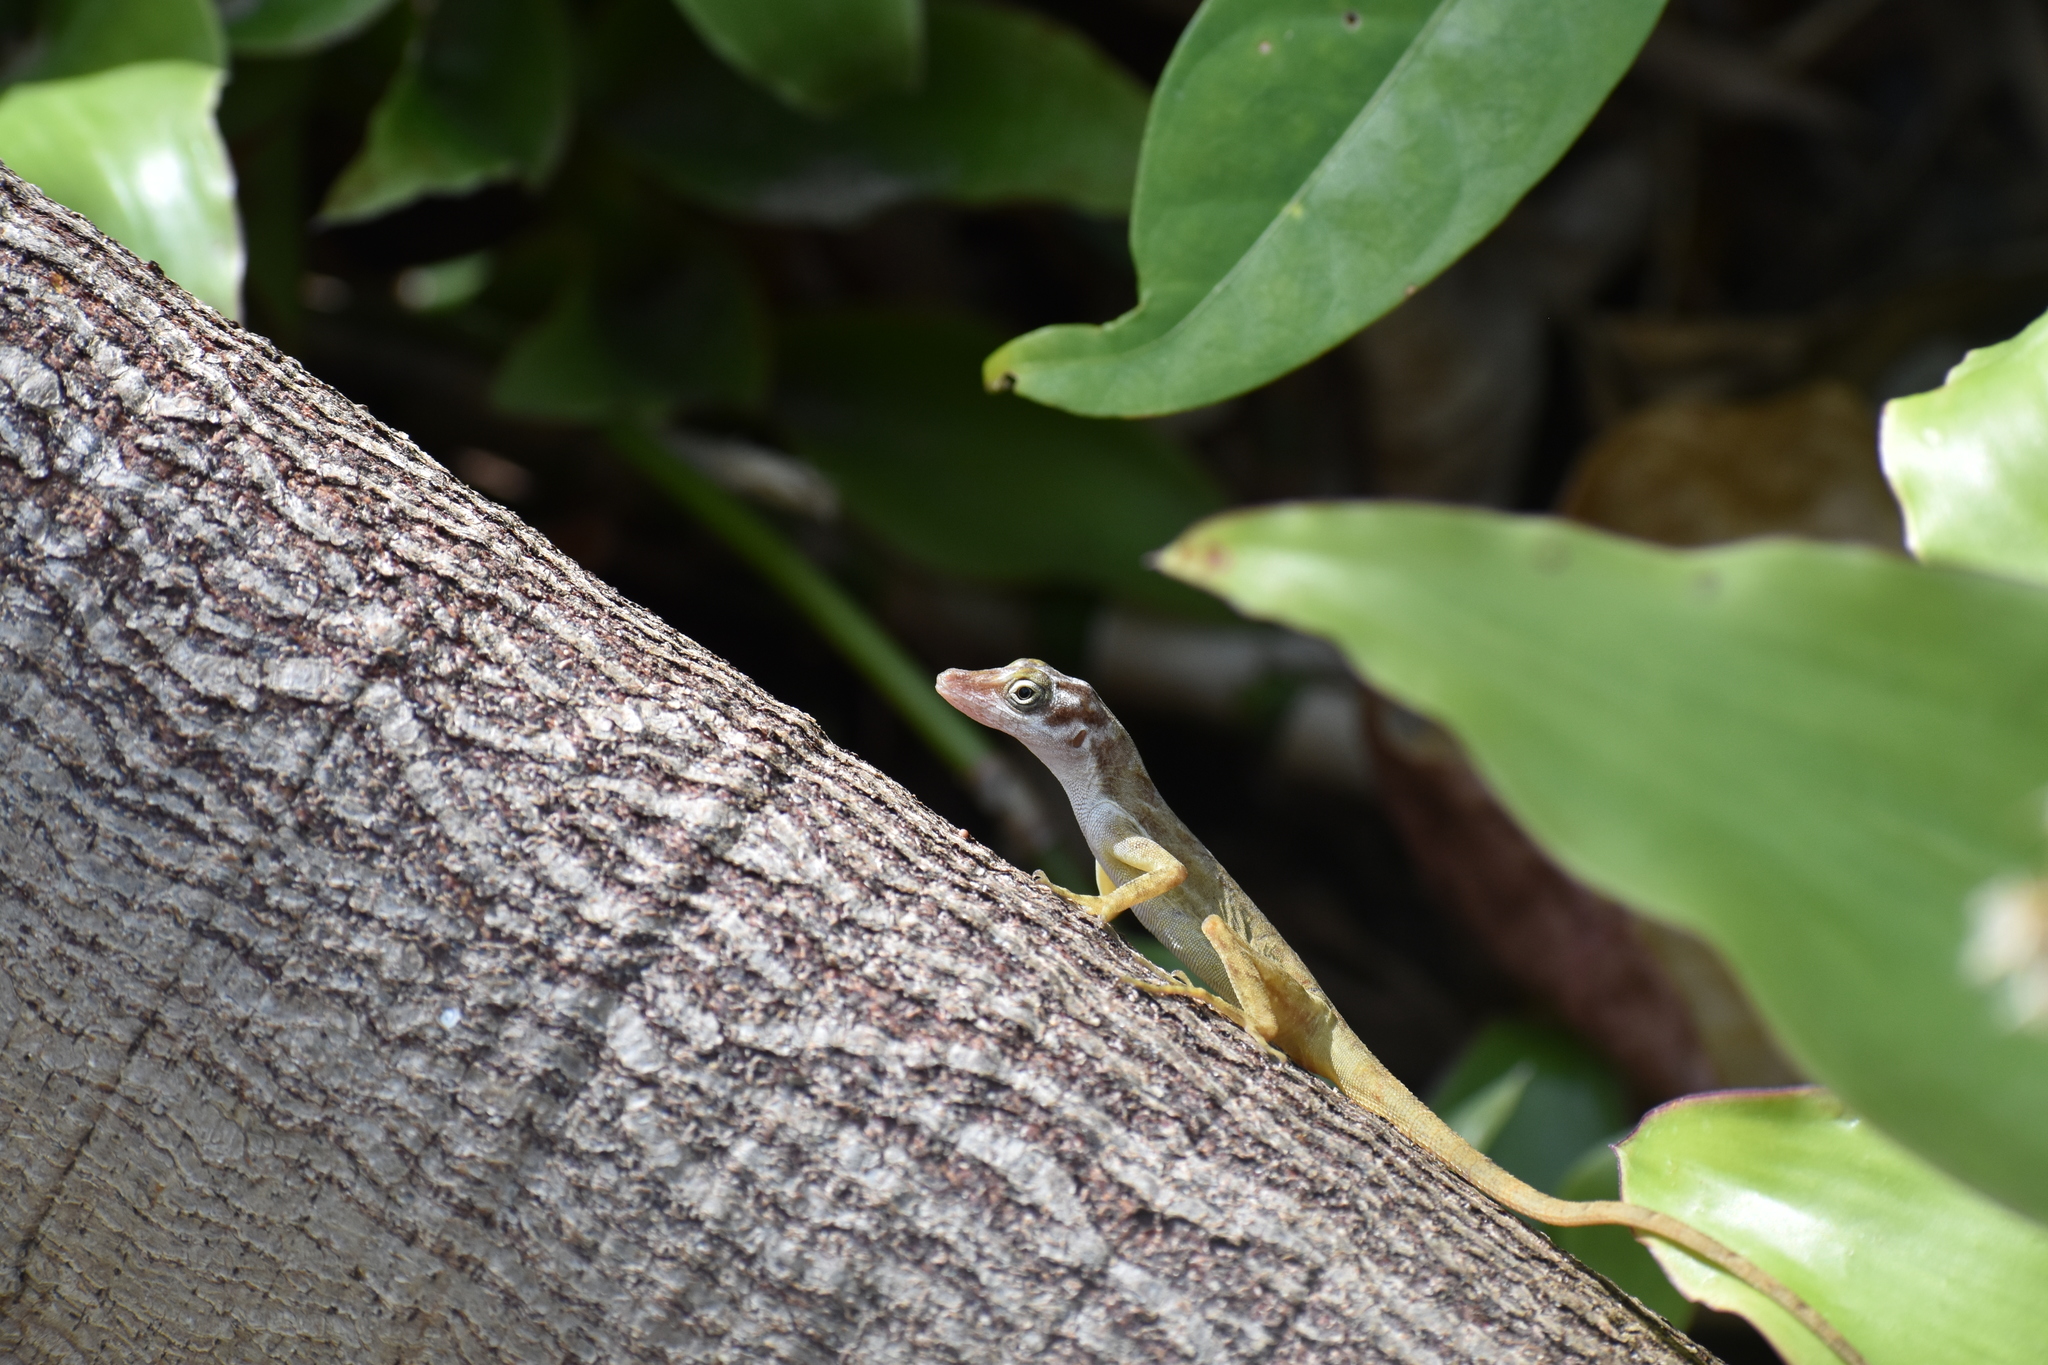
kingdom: Animalia
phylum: Chordata
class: Squamata
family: Dactyloidae
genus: Anolis
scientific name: Anolis concolor
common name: Isla san andres anole
